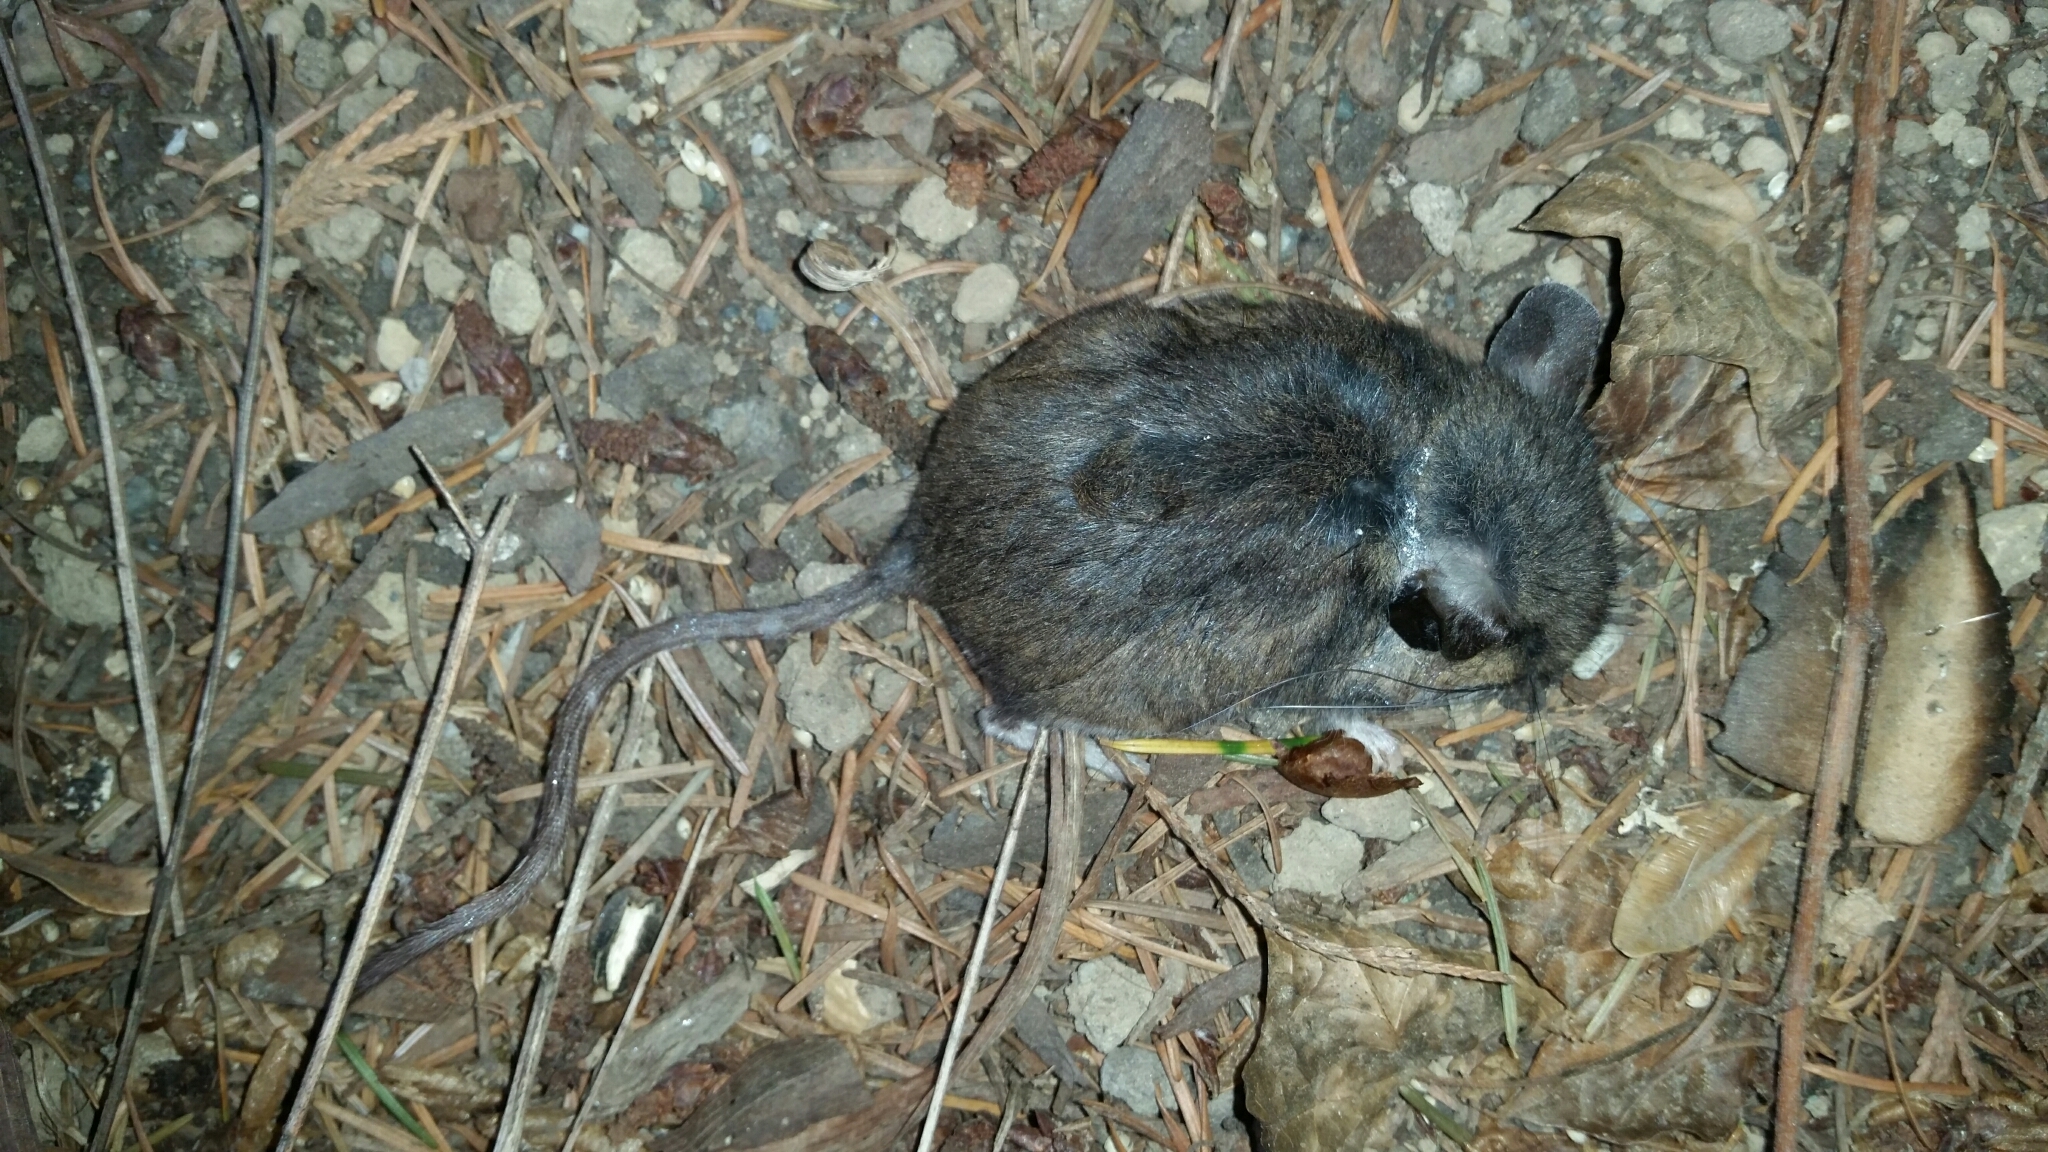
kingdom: Animalia
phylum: Chordata
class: Mammalia
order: Rodentia
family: Cricetidae
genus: Peromyscus
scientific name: Peromyscus maniculatus
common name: Deer mouse
